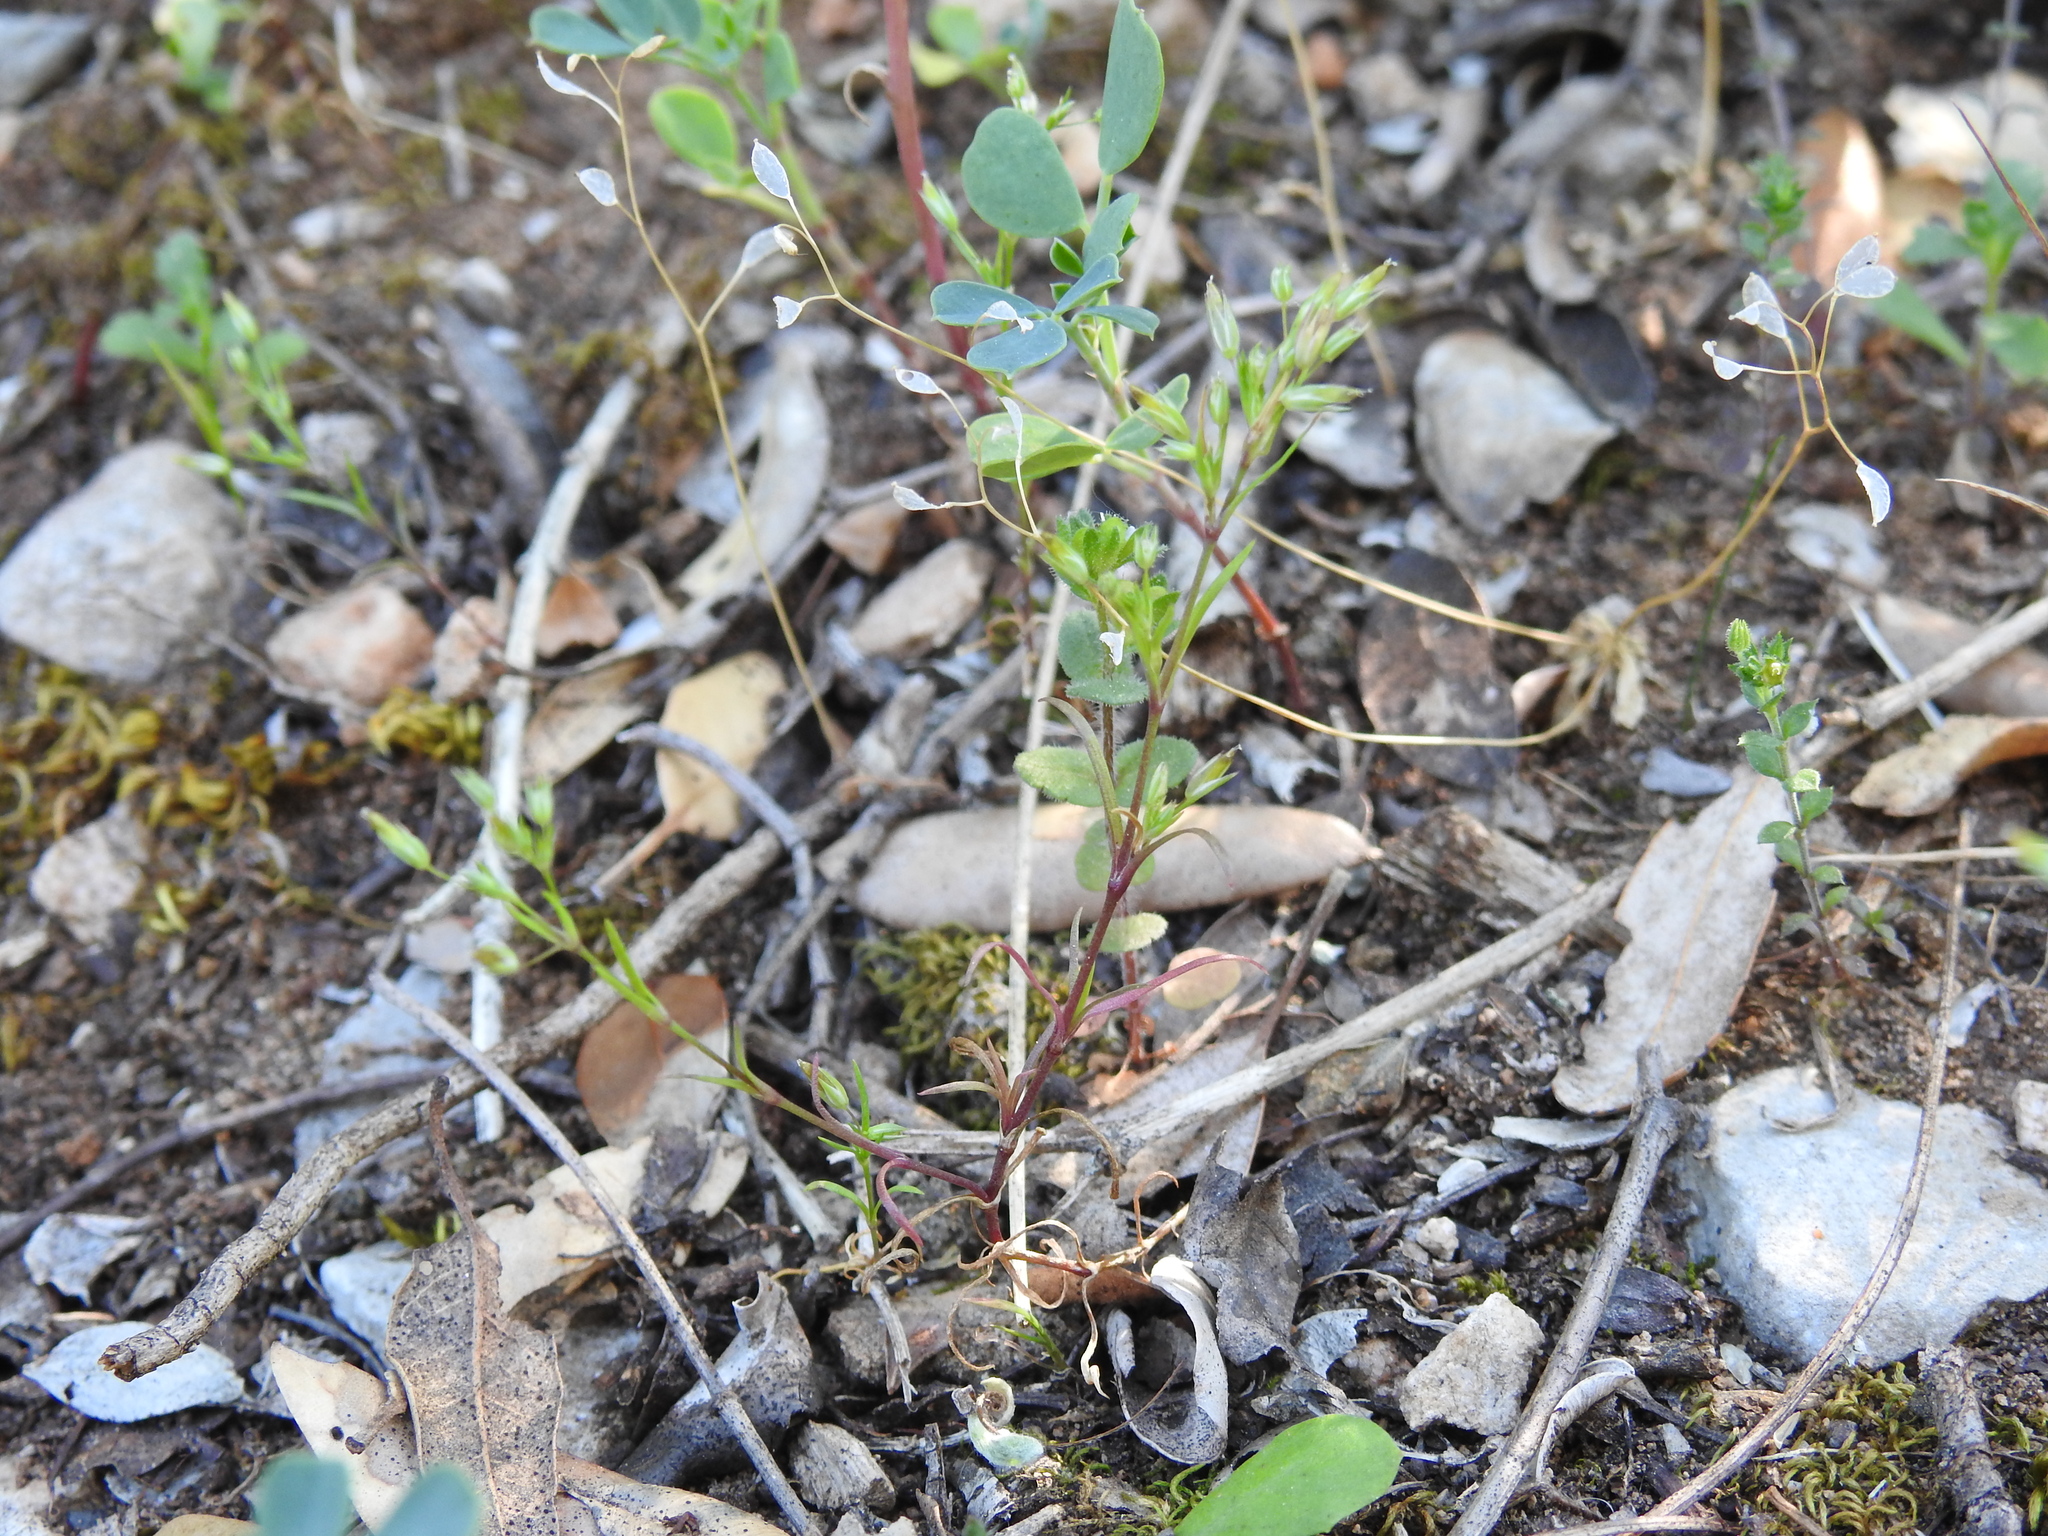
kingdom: Plantae
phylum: Tracheophyta
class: Magnoliopsida
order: Caryophyllales
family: Caryophyllaceae
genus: Sabulina
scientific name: Sabulina tenuifolia
